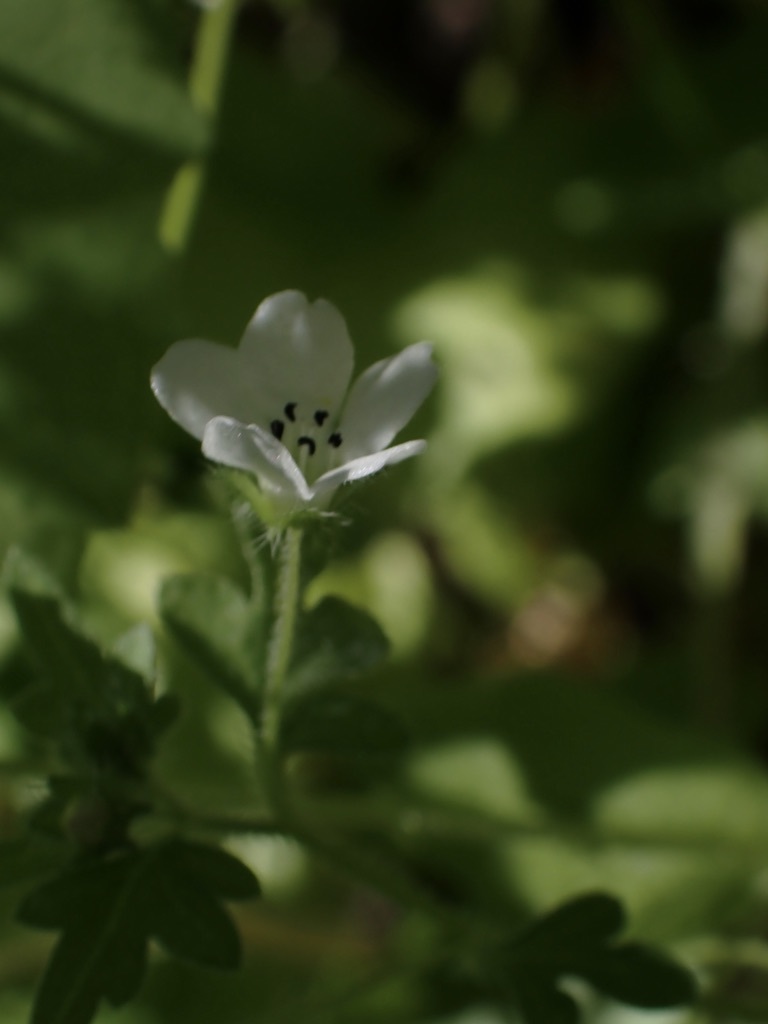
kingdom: Plantae
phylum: Tracheophyta
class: Magnoliopsida
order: Boraginales
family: Hydrophyllaceae
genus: Nemophila
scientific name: Nemophila heterophylla
